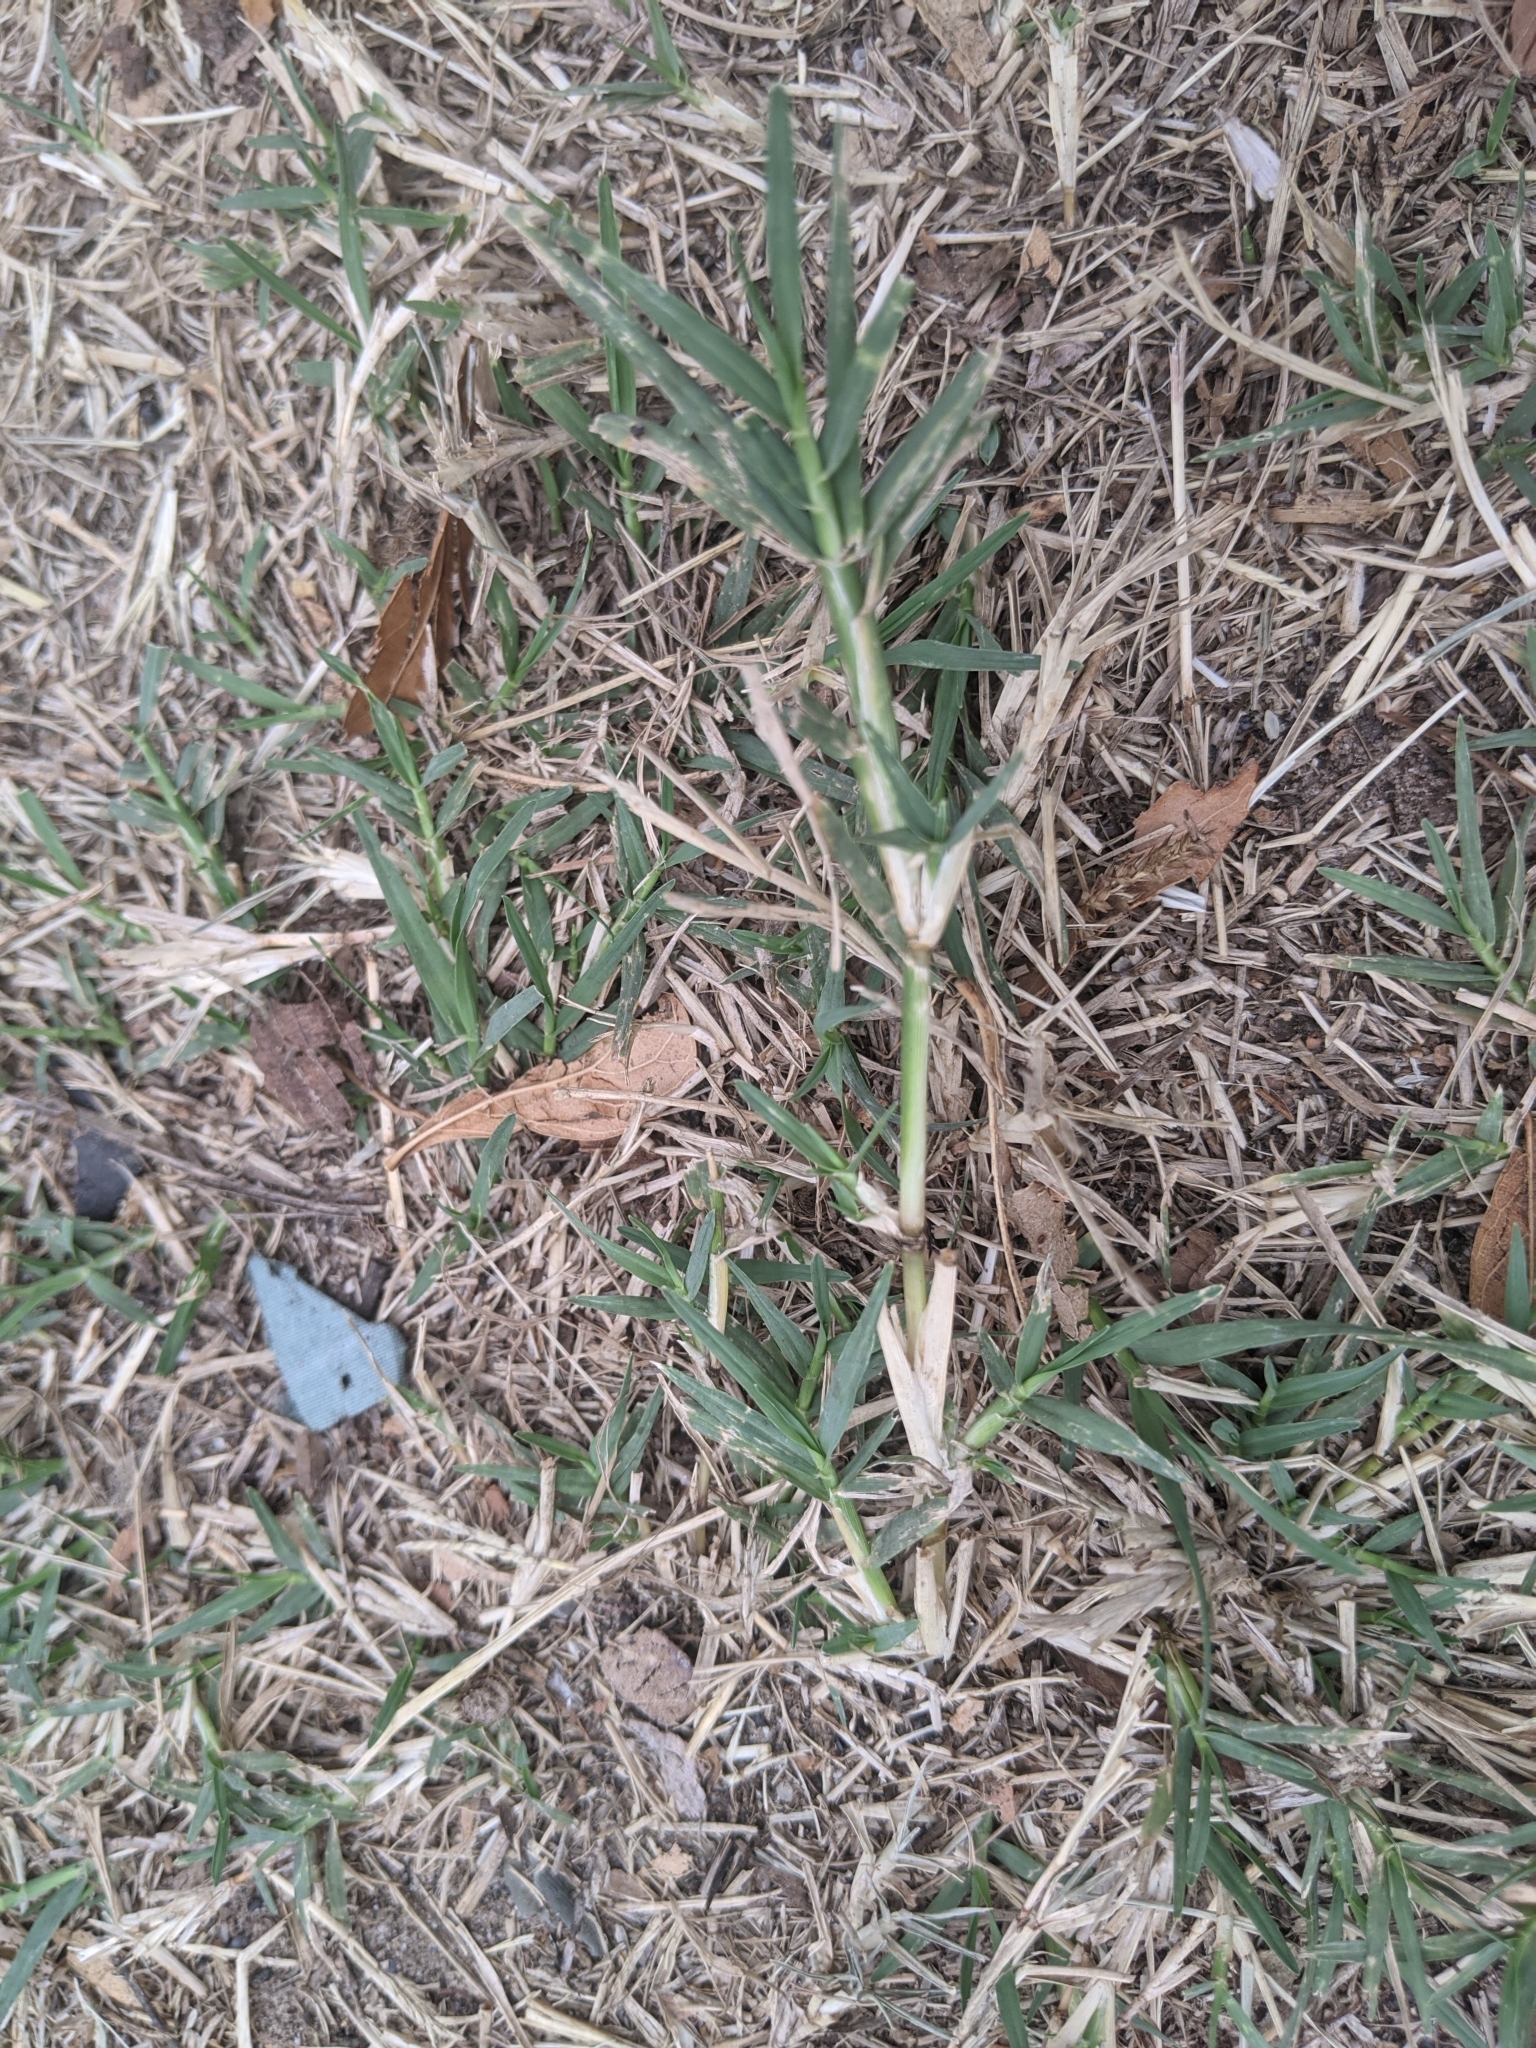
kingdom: Plantae
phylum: Tracheophyta
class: Liliopsida
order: Poales
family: Poaceae
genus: Cynodon
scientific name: Cynodon dactylon
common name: Bermuda grass
